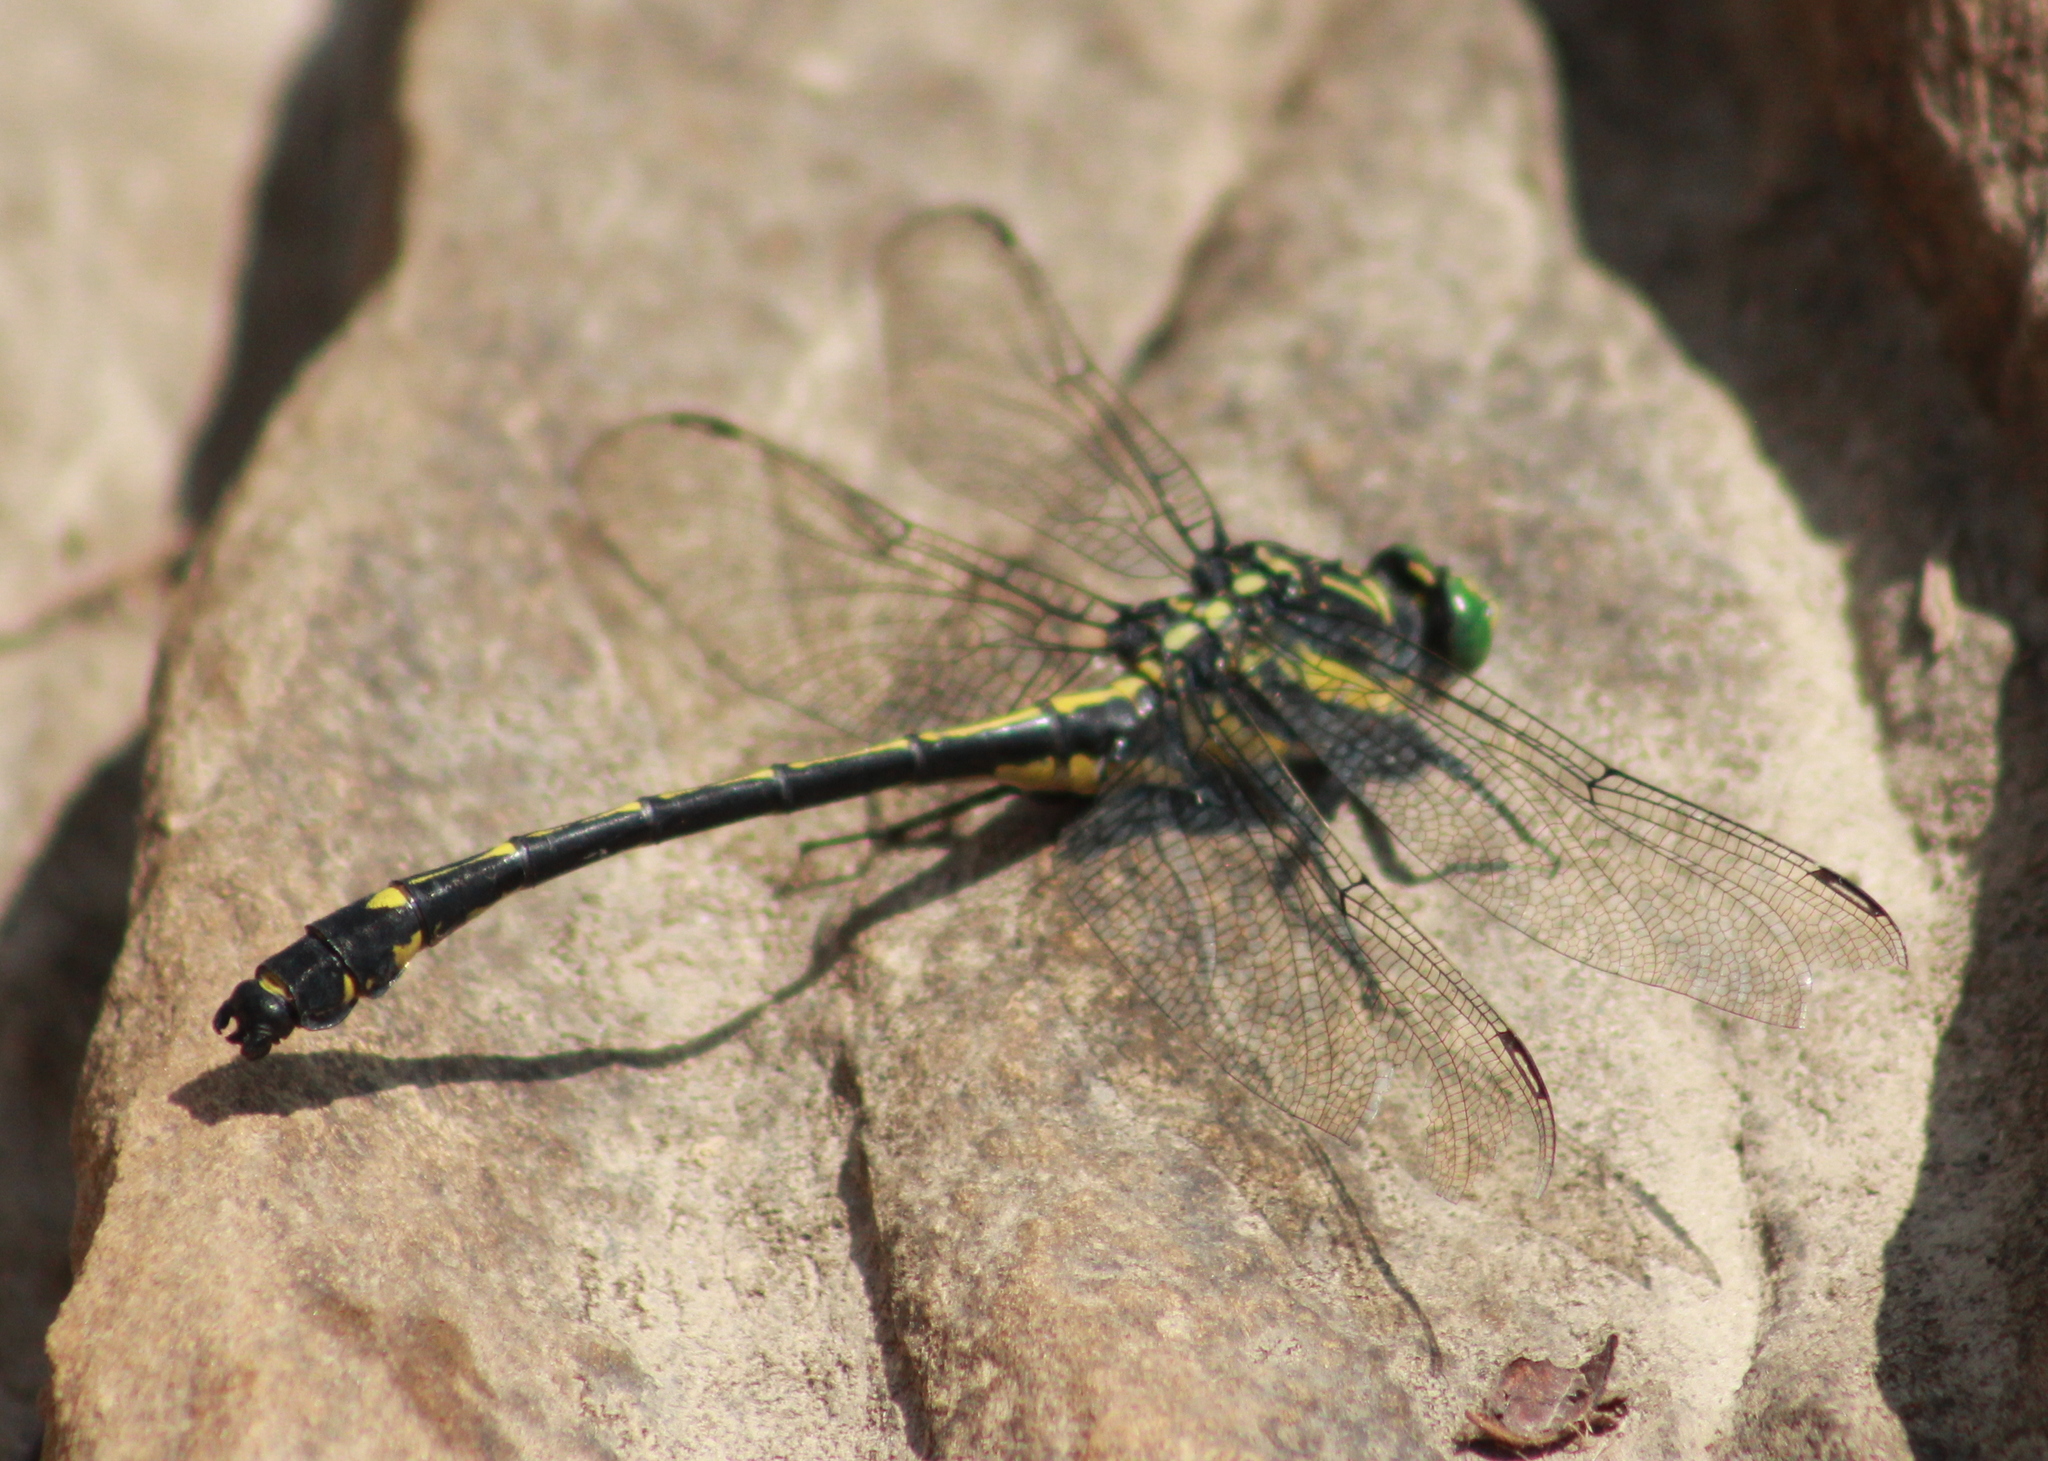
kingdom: Animalia
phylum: Arthropoda
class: Insecta
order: Odonata
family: Gomphidae
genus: Hagenius
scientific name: Hagenius brevistylus
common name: Dragonhunter
